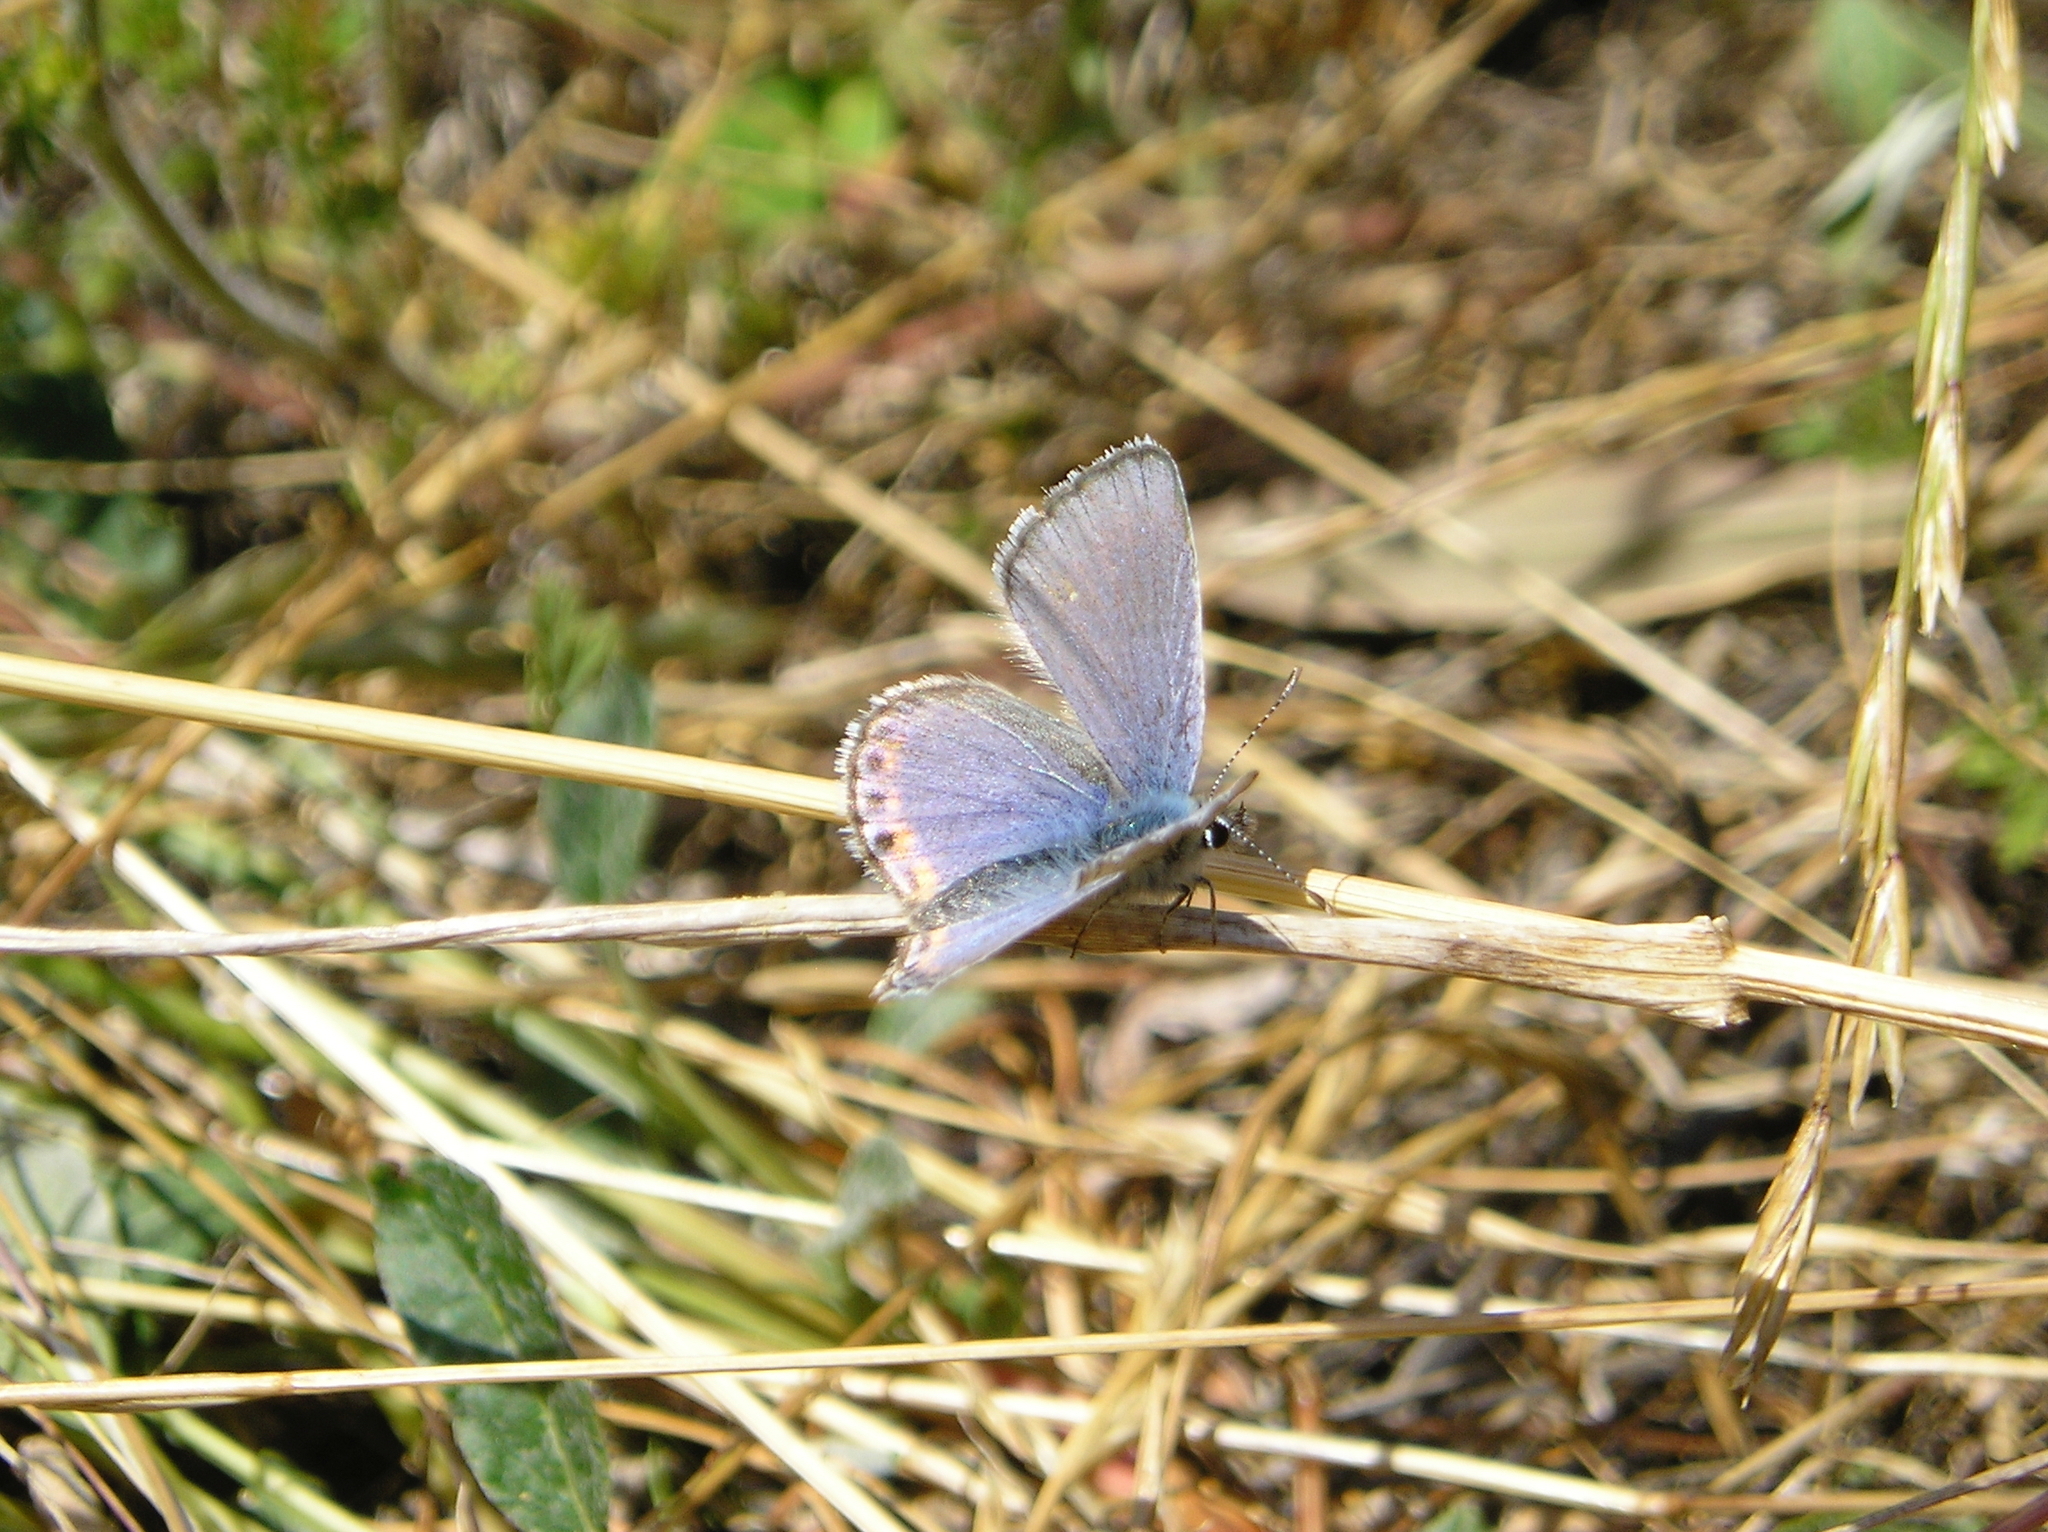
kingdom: Animalia
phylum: Arthropoda
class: Insecta
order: Lepidoptera
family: Lycaenidae
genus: Icaricia
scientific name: Icaricia acmon
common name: Acmon blue
